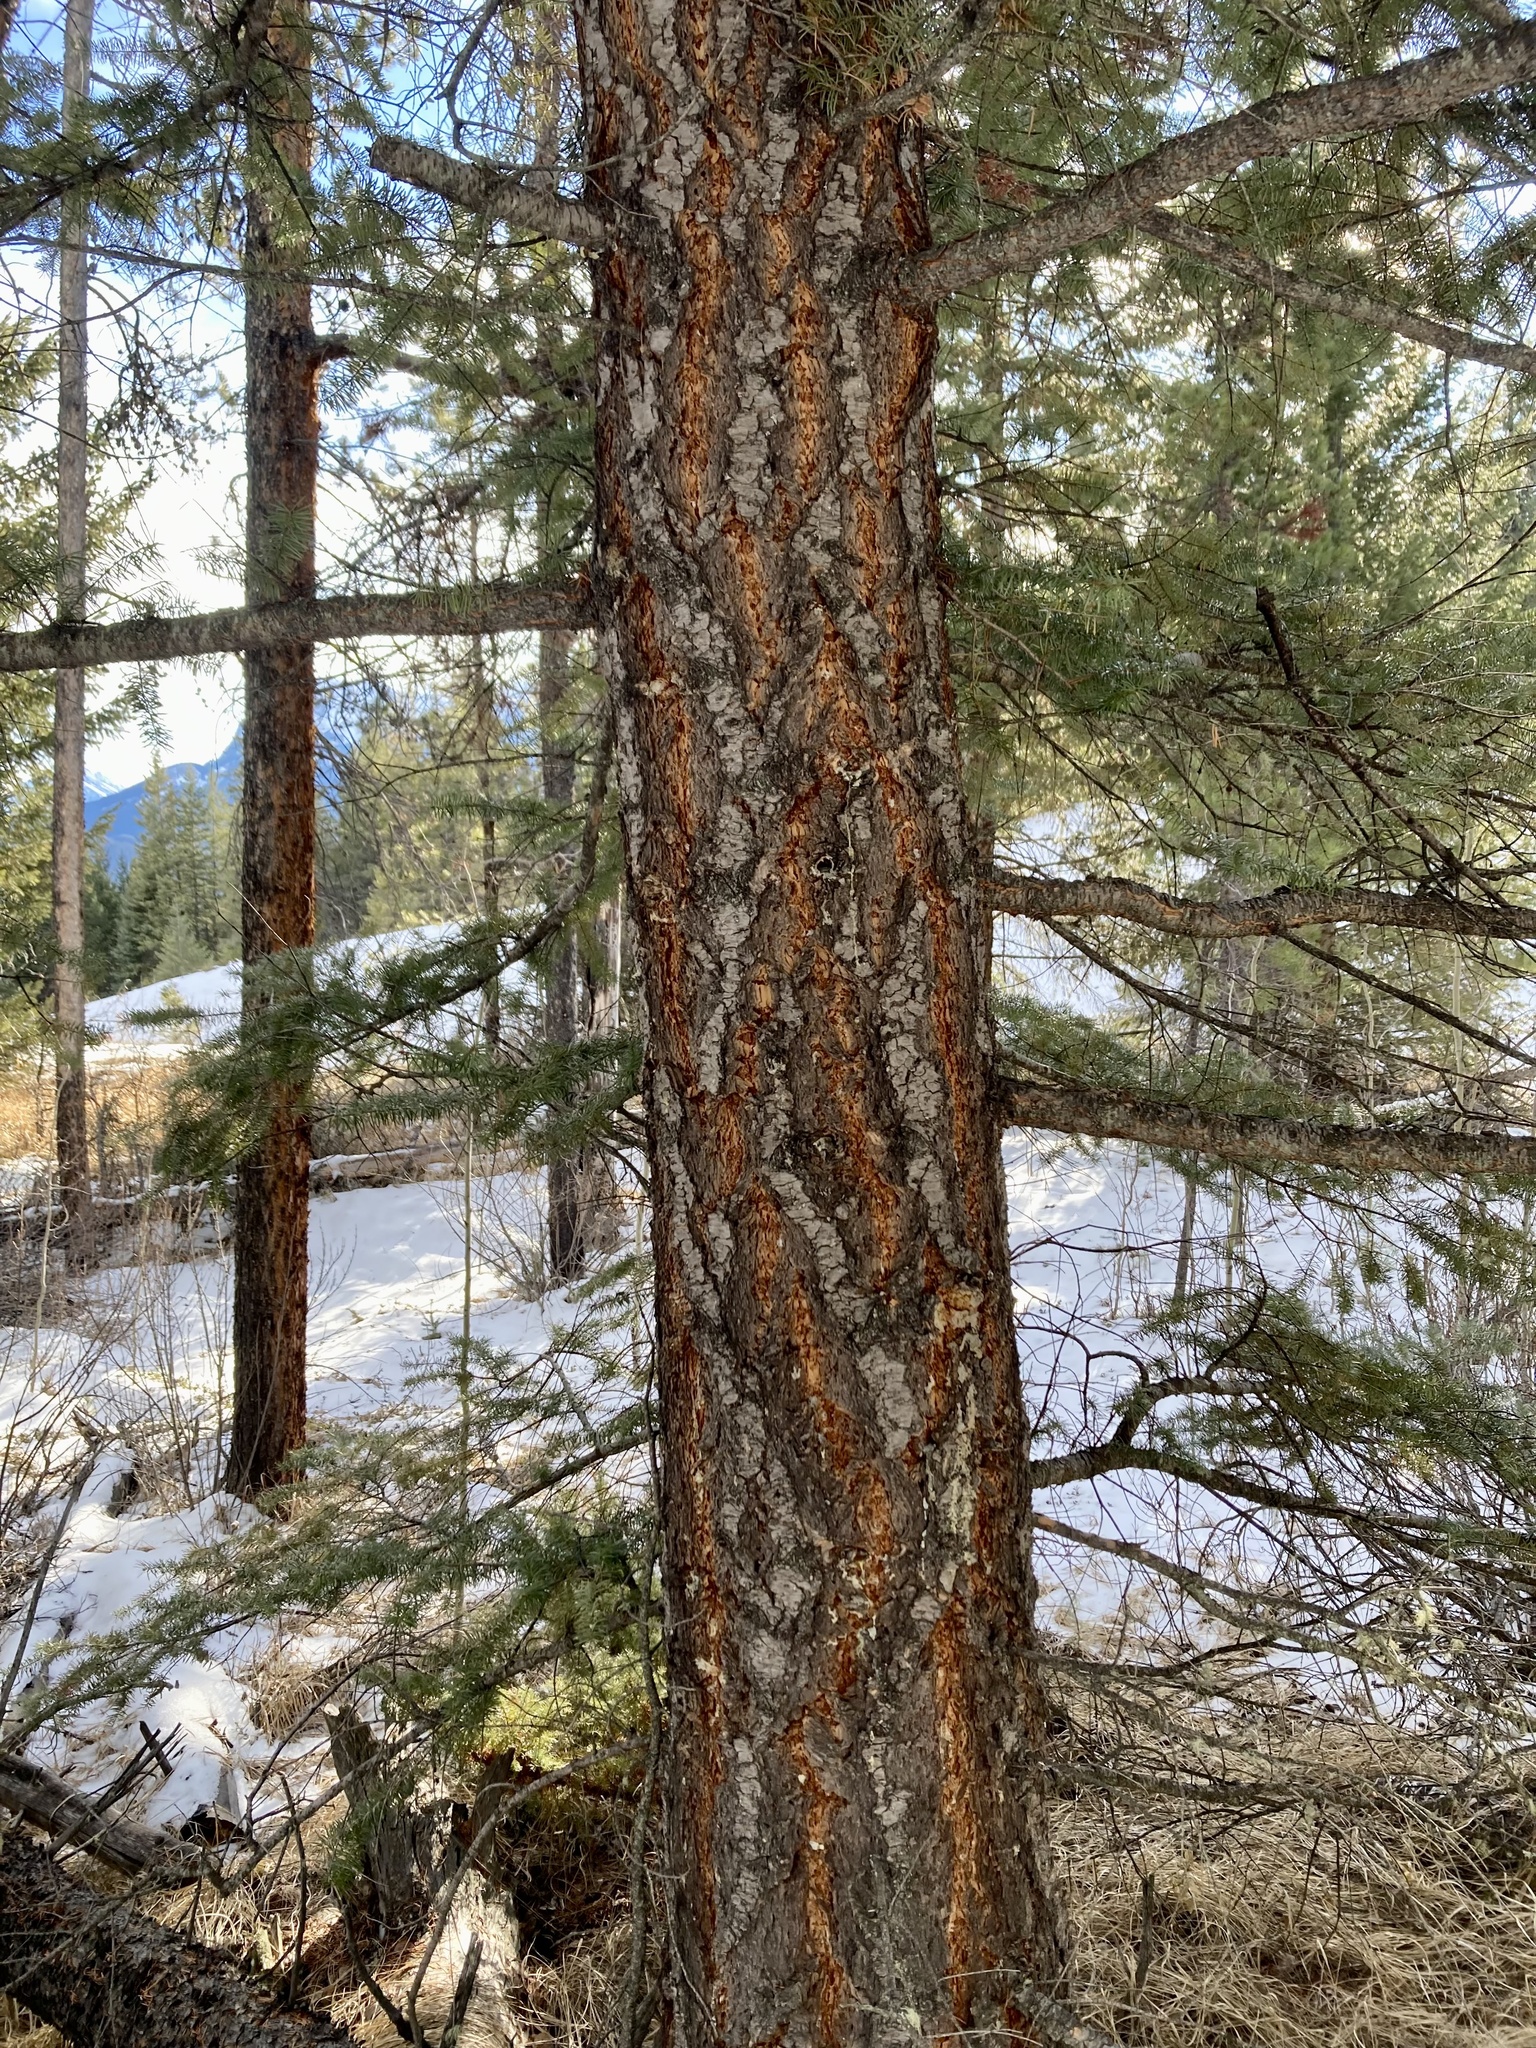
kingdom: Plantae
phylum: Tracheophyta
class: Pinopsida
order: Pinales
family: Pinaceae
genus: Pseudotsuga
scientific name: Pseudotsuga menziesii
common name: Douglas fir
